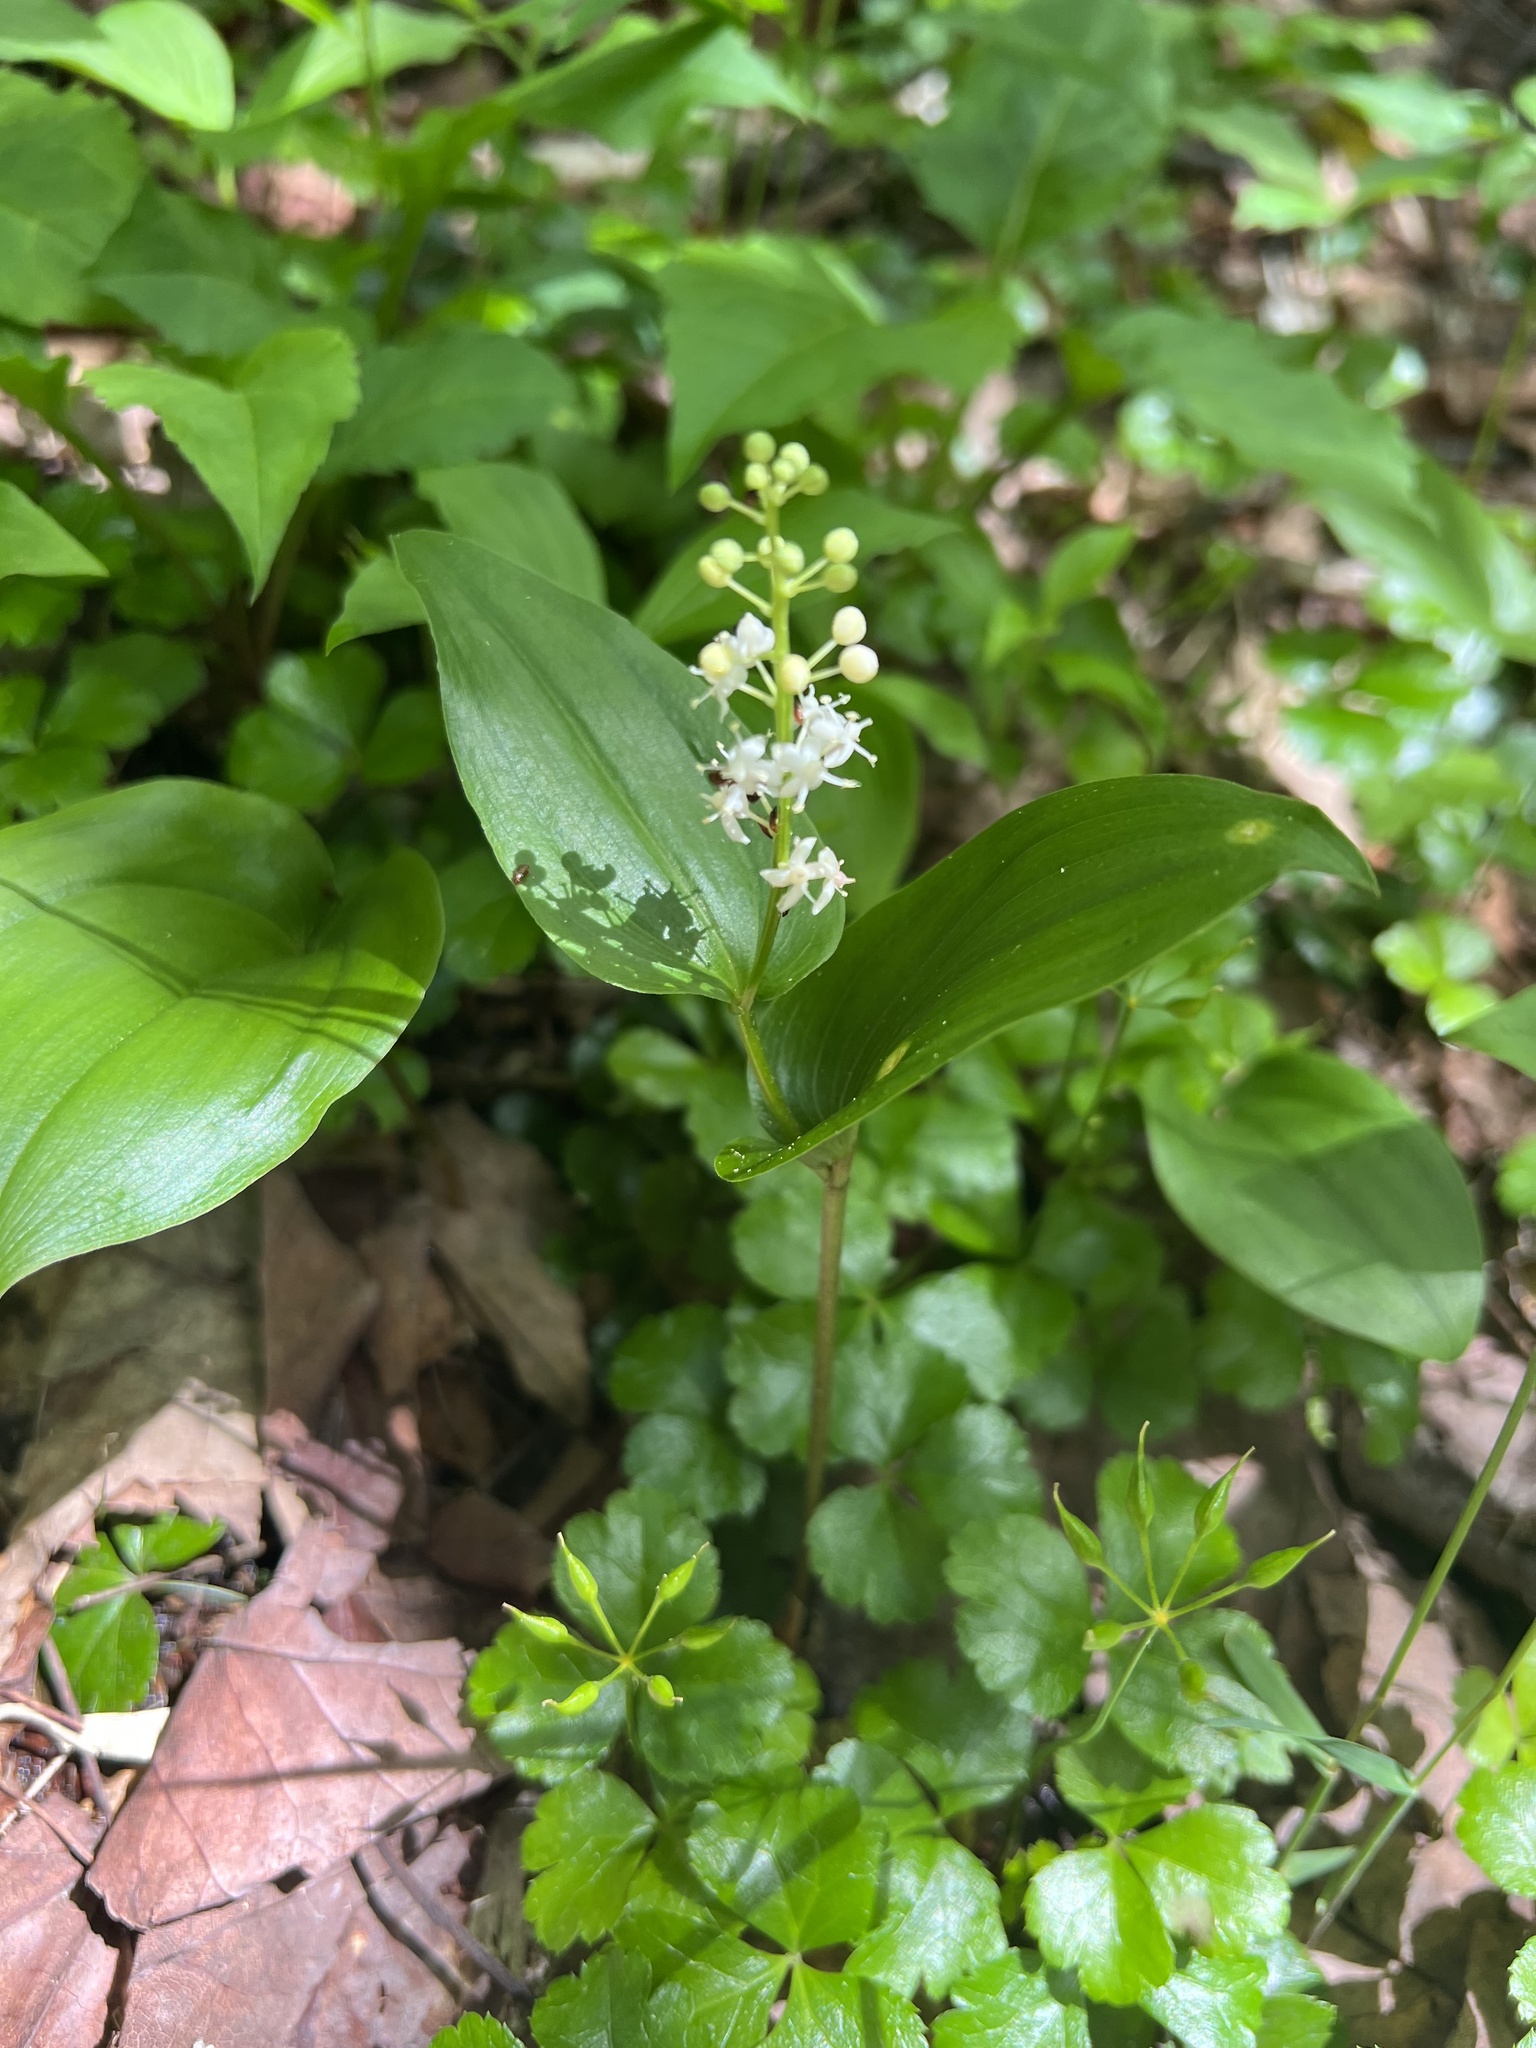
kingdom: Plantae
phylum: Tracheophyta
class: Liliopsida
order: Asparagales
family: Asparagaceae
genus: Maianthemum
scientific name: Maianthemum canadense
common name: False lily-of-the-valley
